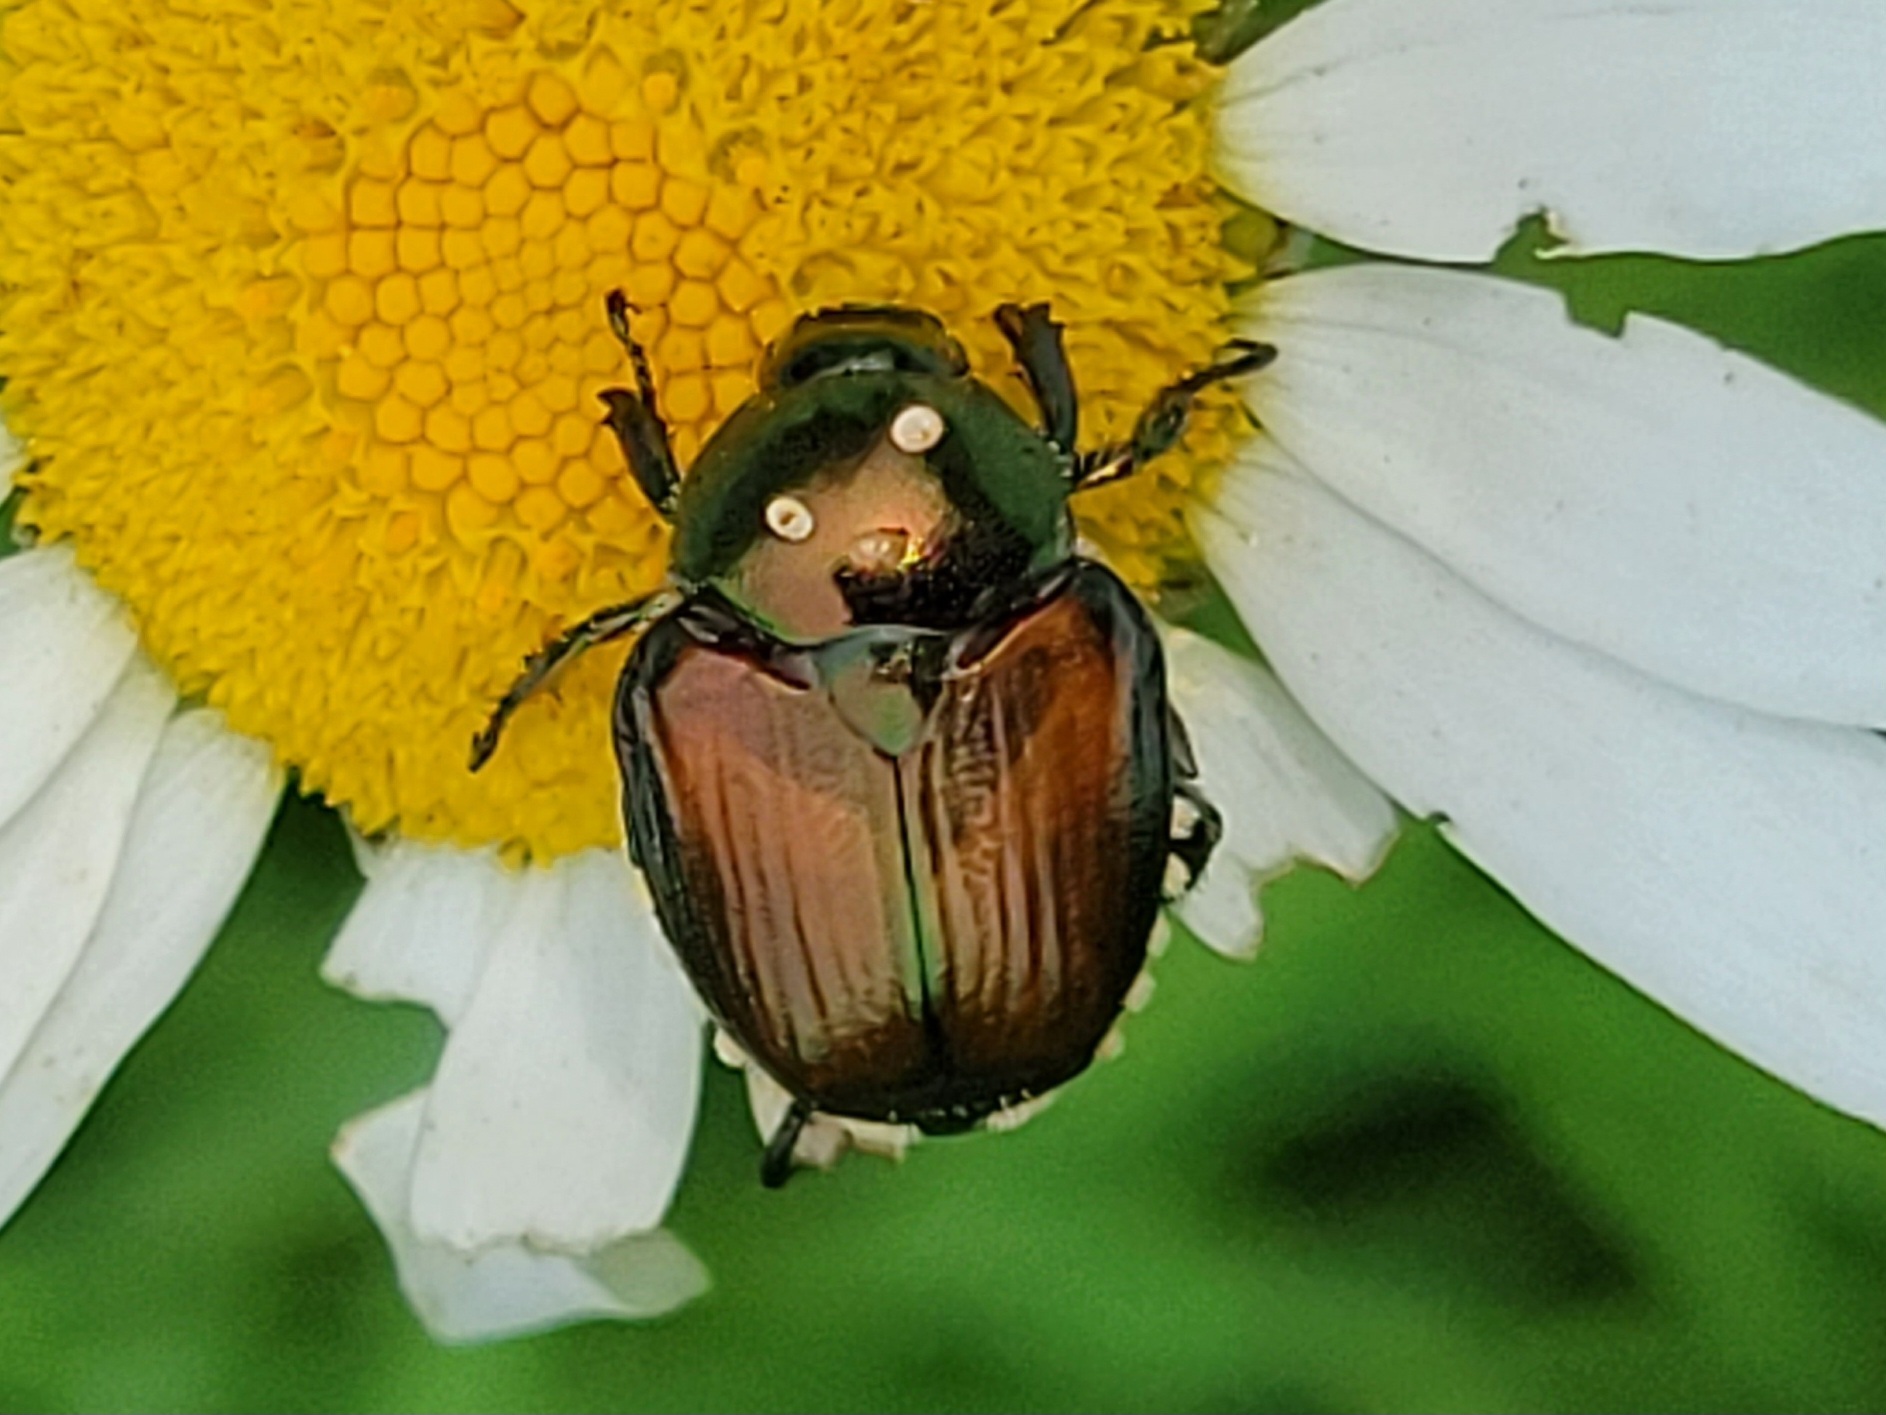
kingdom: Animalia
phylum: Arthropoda
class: Insecta
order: Coleoptera
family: Scarabaeidae
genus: Popillia
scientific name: Popillia japonica
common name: Japanese beetle
